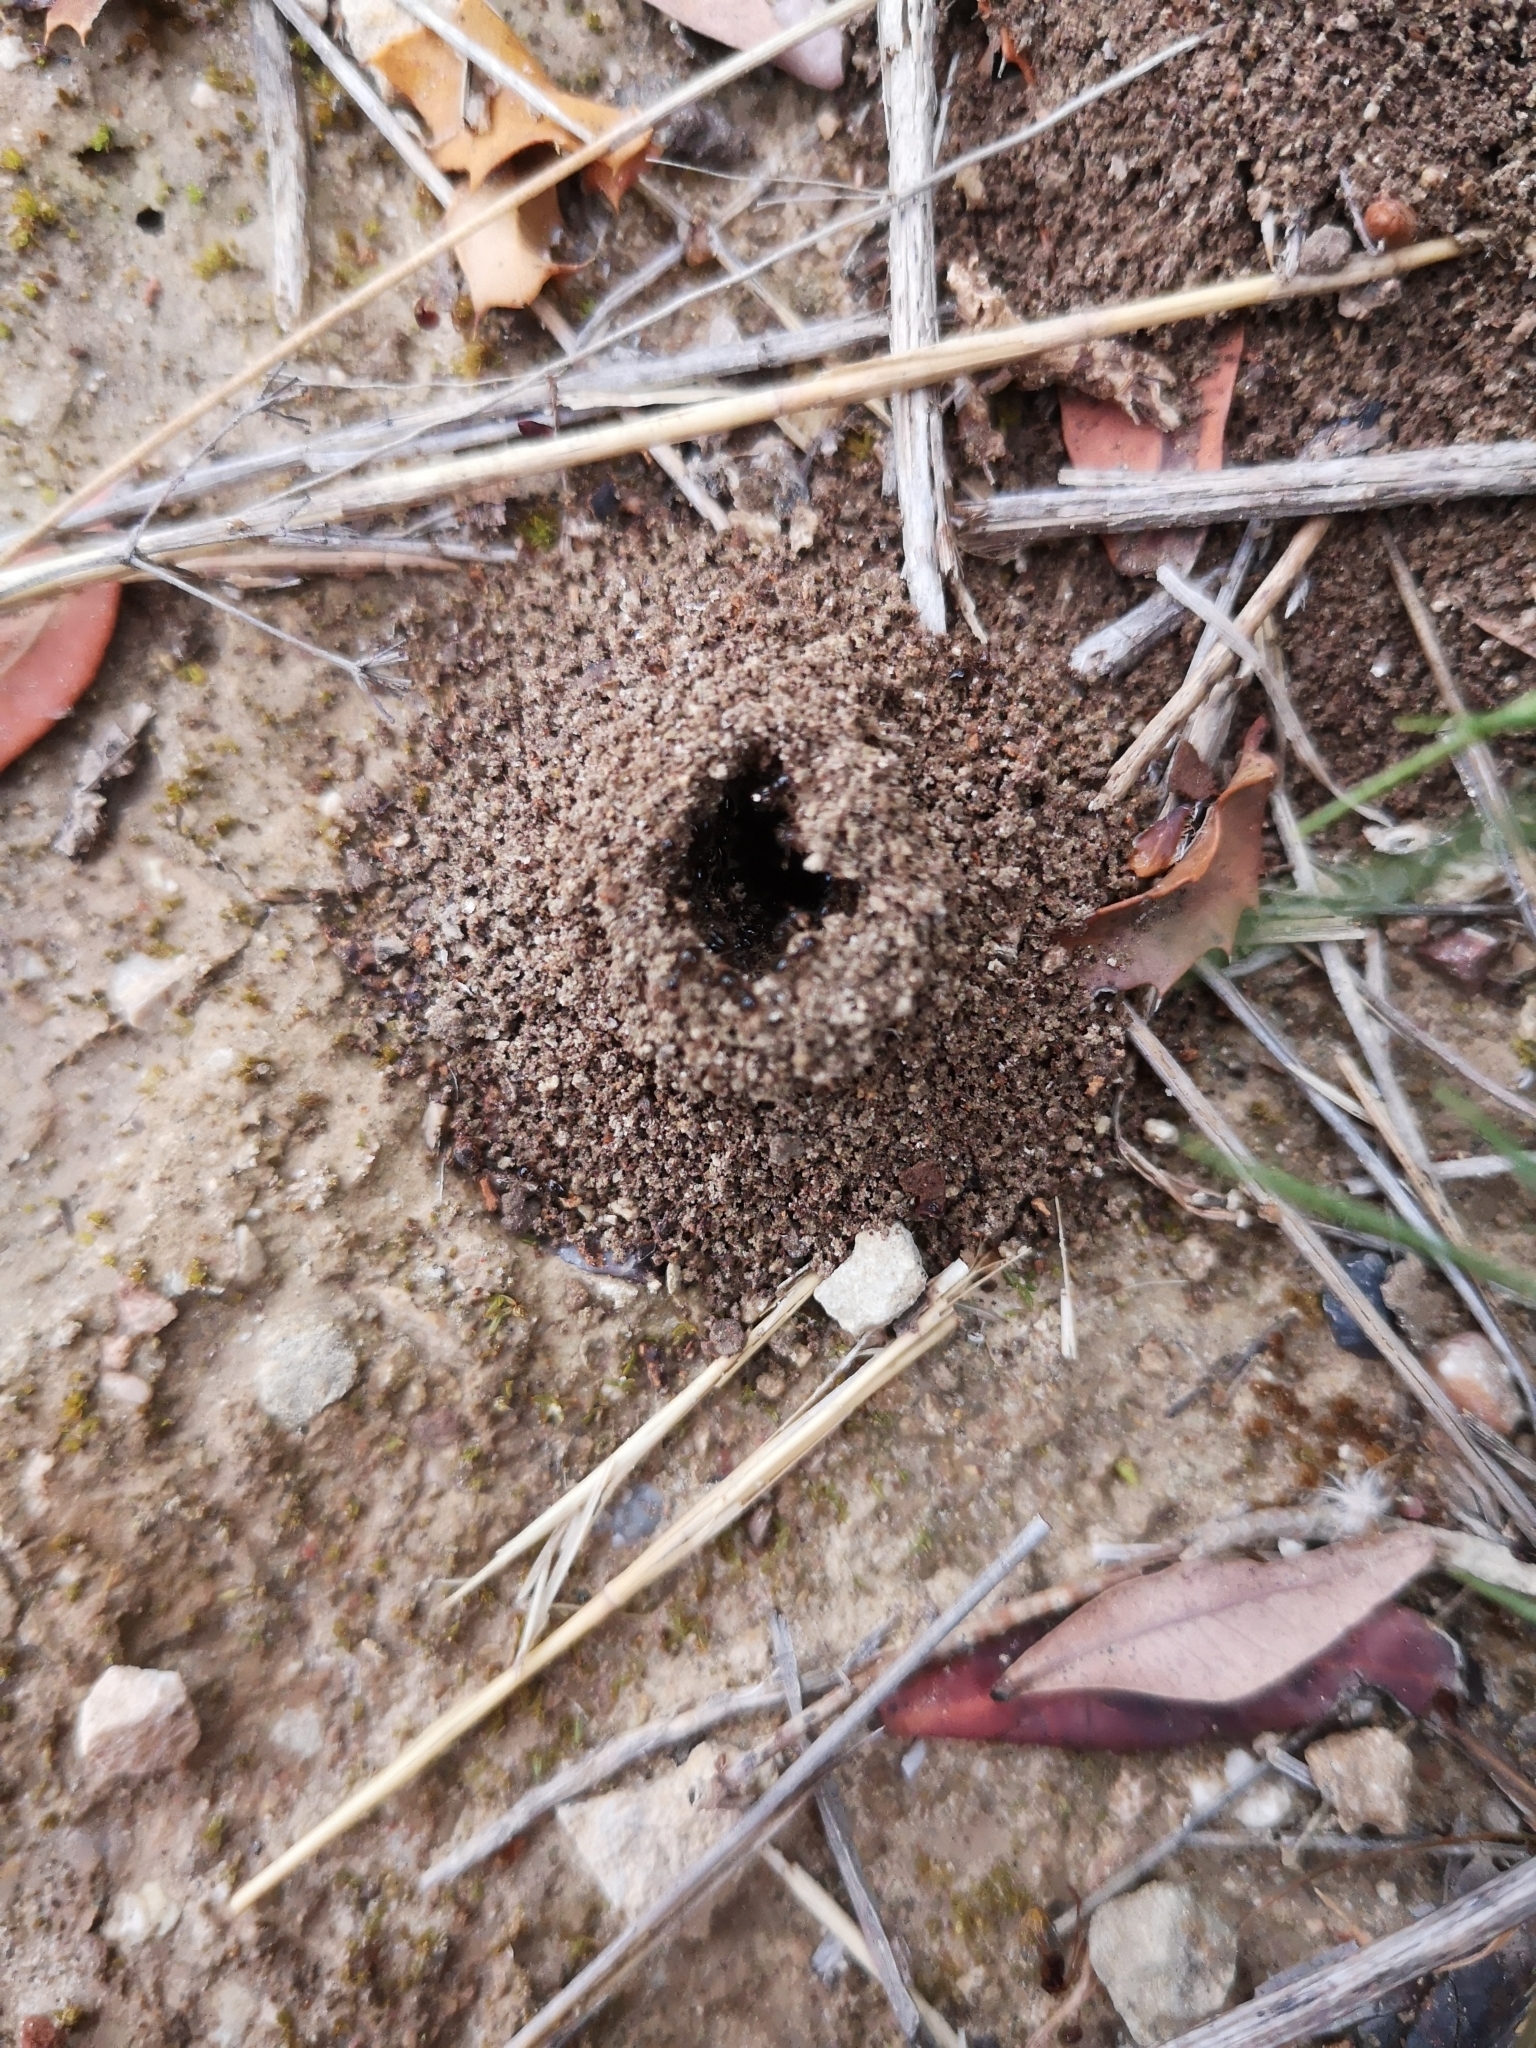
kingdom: Animalia
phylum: Arthropoda
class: Insecta
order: Hymenoptera
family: Formicidae
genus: Crematogaster
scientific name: Crematogaster sordidula
